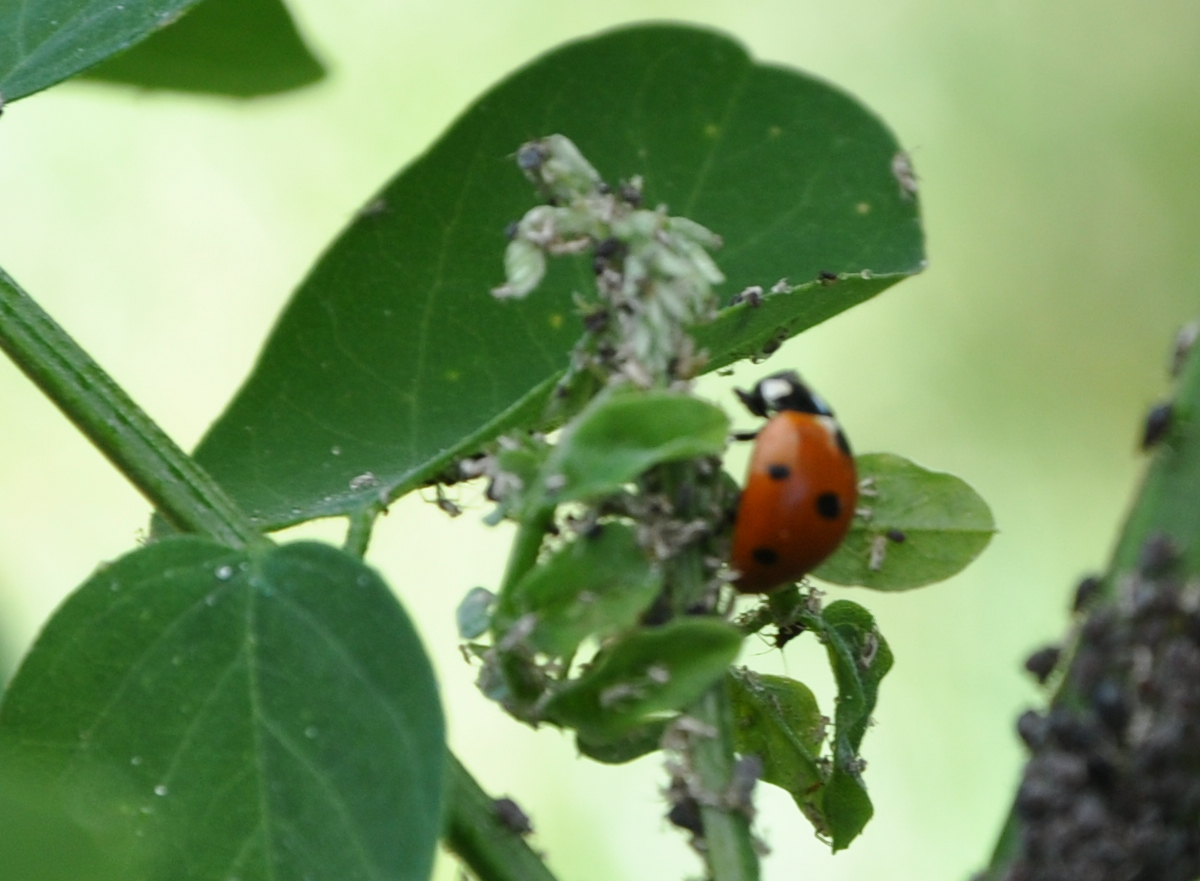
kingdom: Animalia
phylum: Arthropoda
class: Insecta
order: Coleoptera
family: Coccinellidae
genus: Coccinella
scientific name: Coccinella septempunctata
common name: Sevenspotted lady beetle
